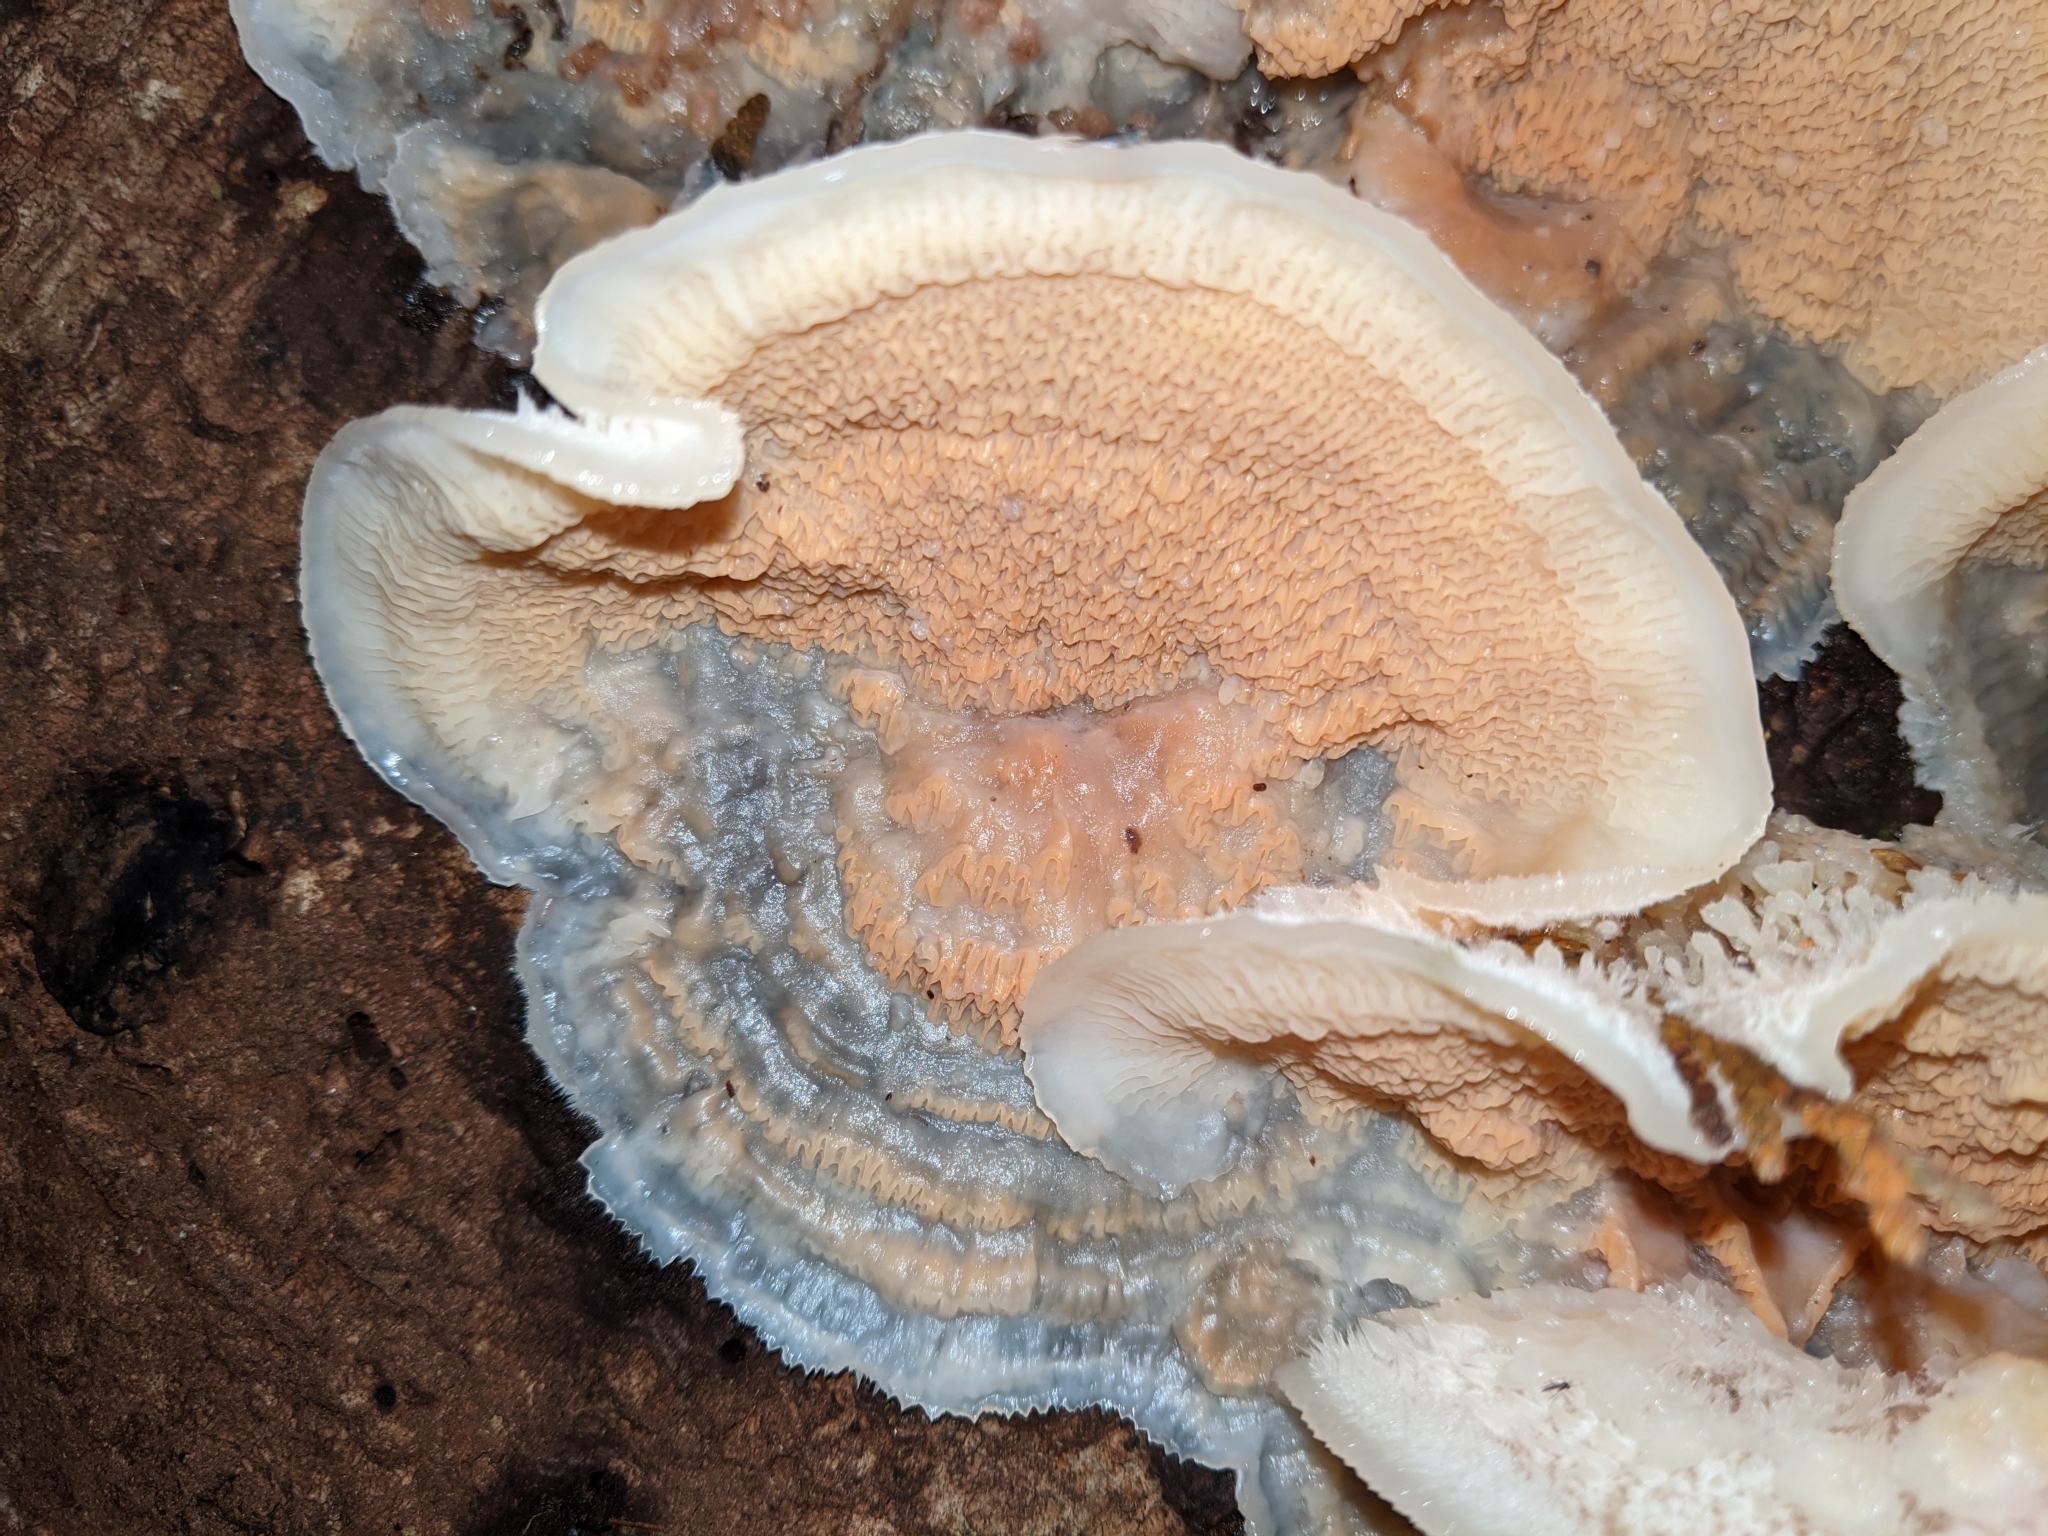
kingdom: Fungi
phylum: Basidiomycota
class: Agaricomycetes
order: Polyporales
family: Meruliaceae
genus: Phlebia
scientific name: Phlebia tremellosa
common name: Jelly rot
